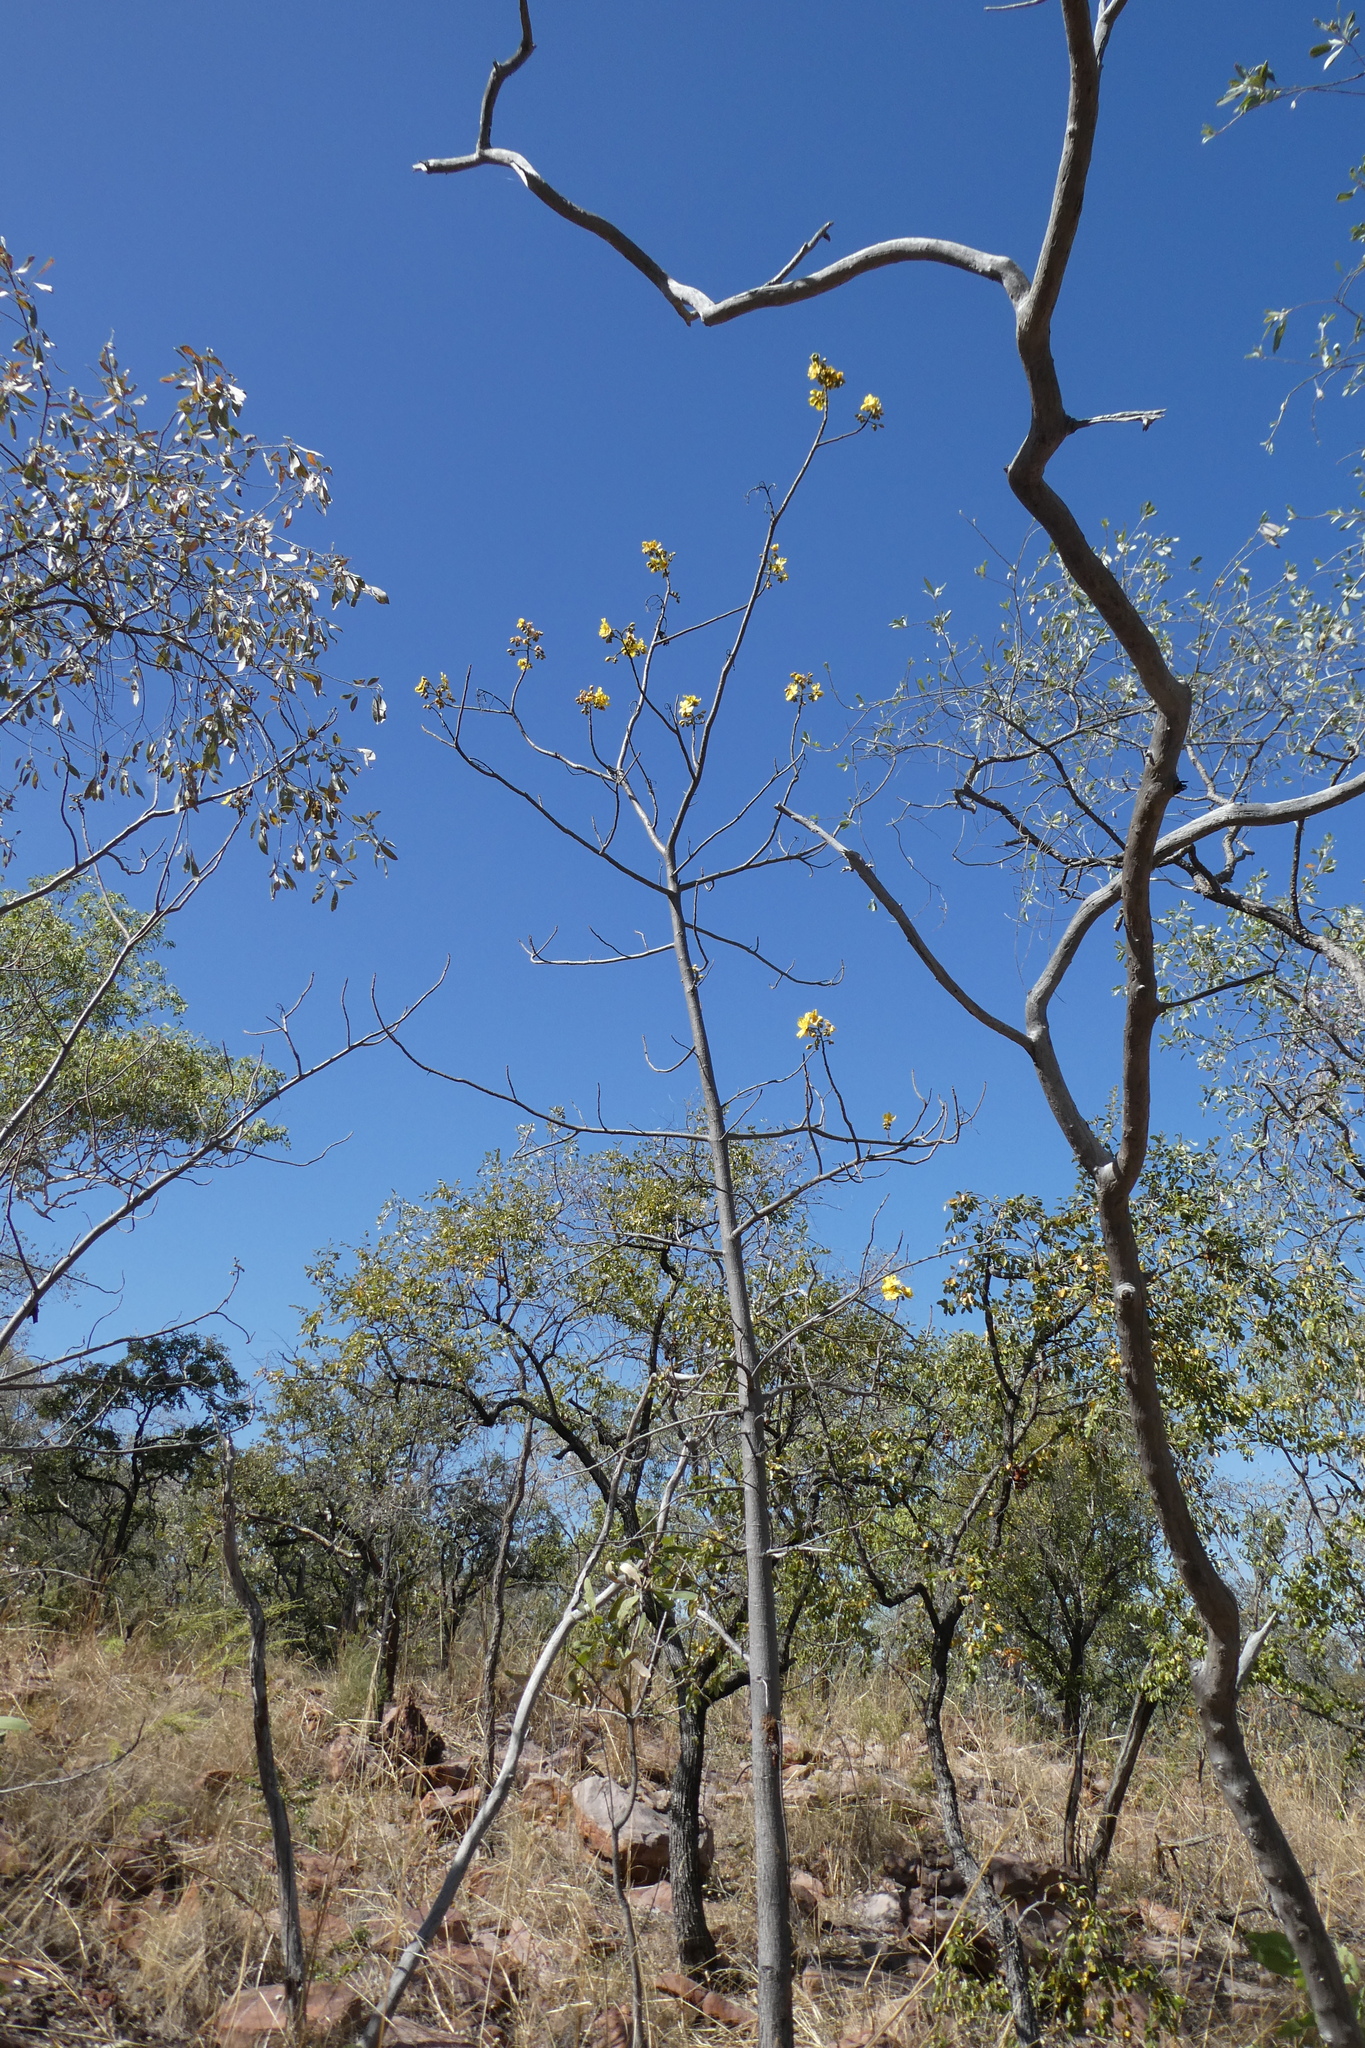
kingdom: Plantae
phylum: Tracheophyta
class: Magnoliopsida
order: Malvales
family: Cochlospermaceae
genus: Cochlospermum
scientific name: Cochlospermum fraseri
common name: Kapokbush
